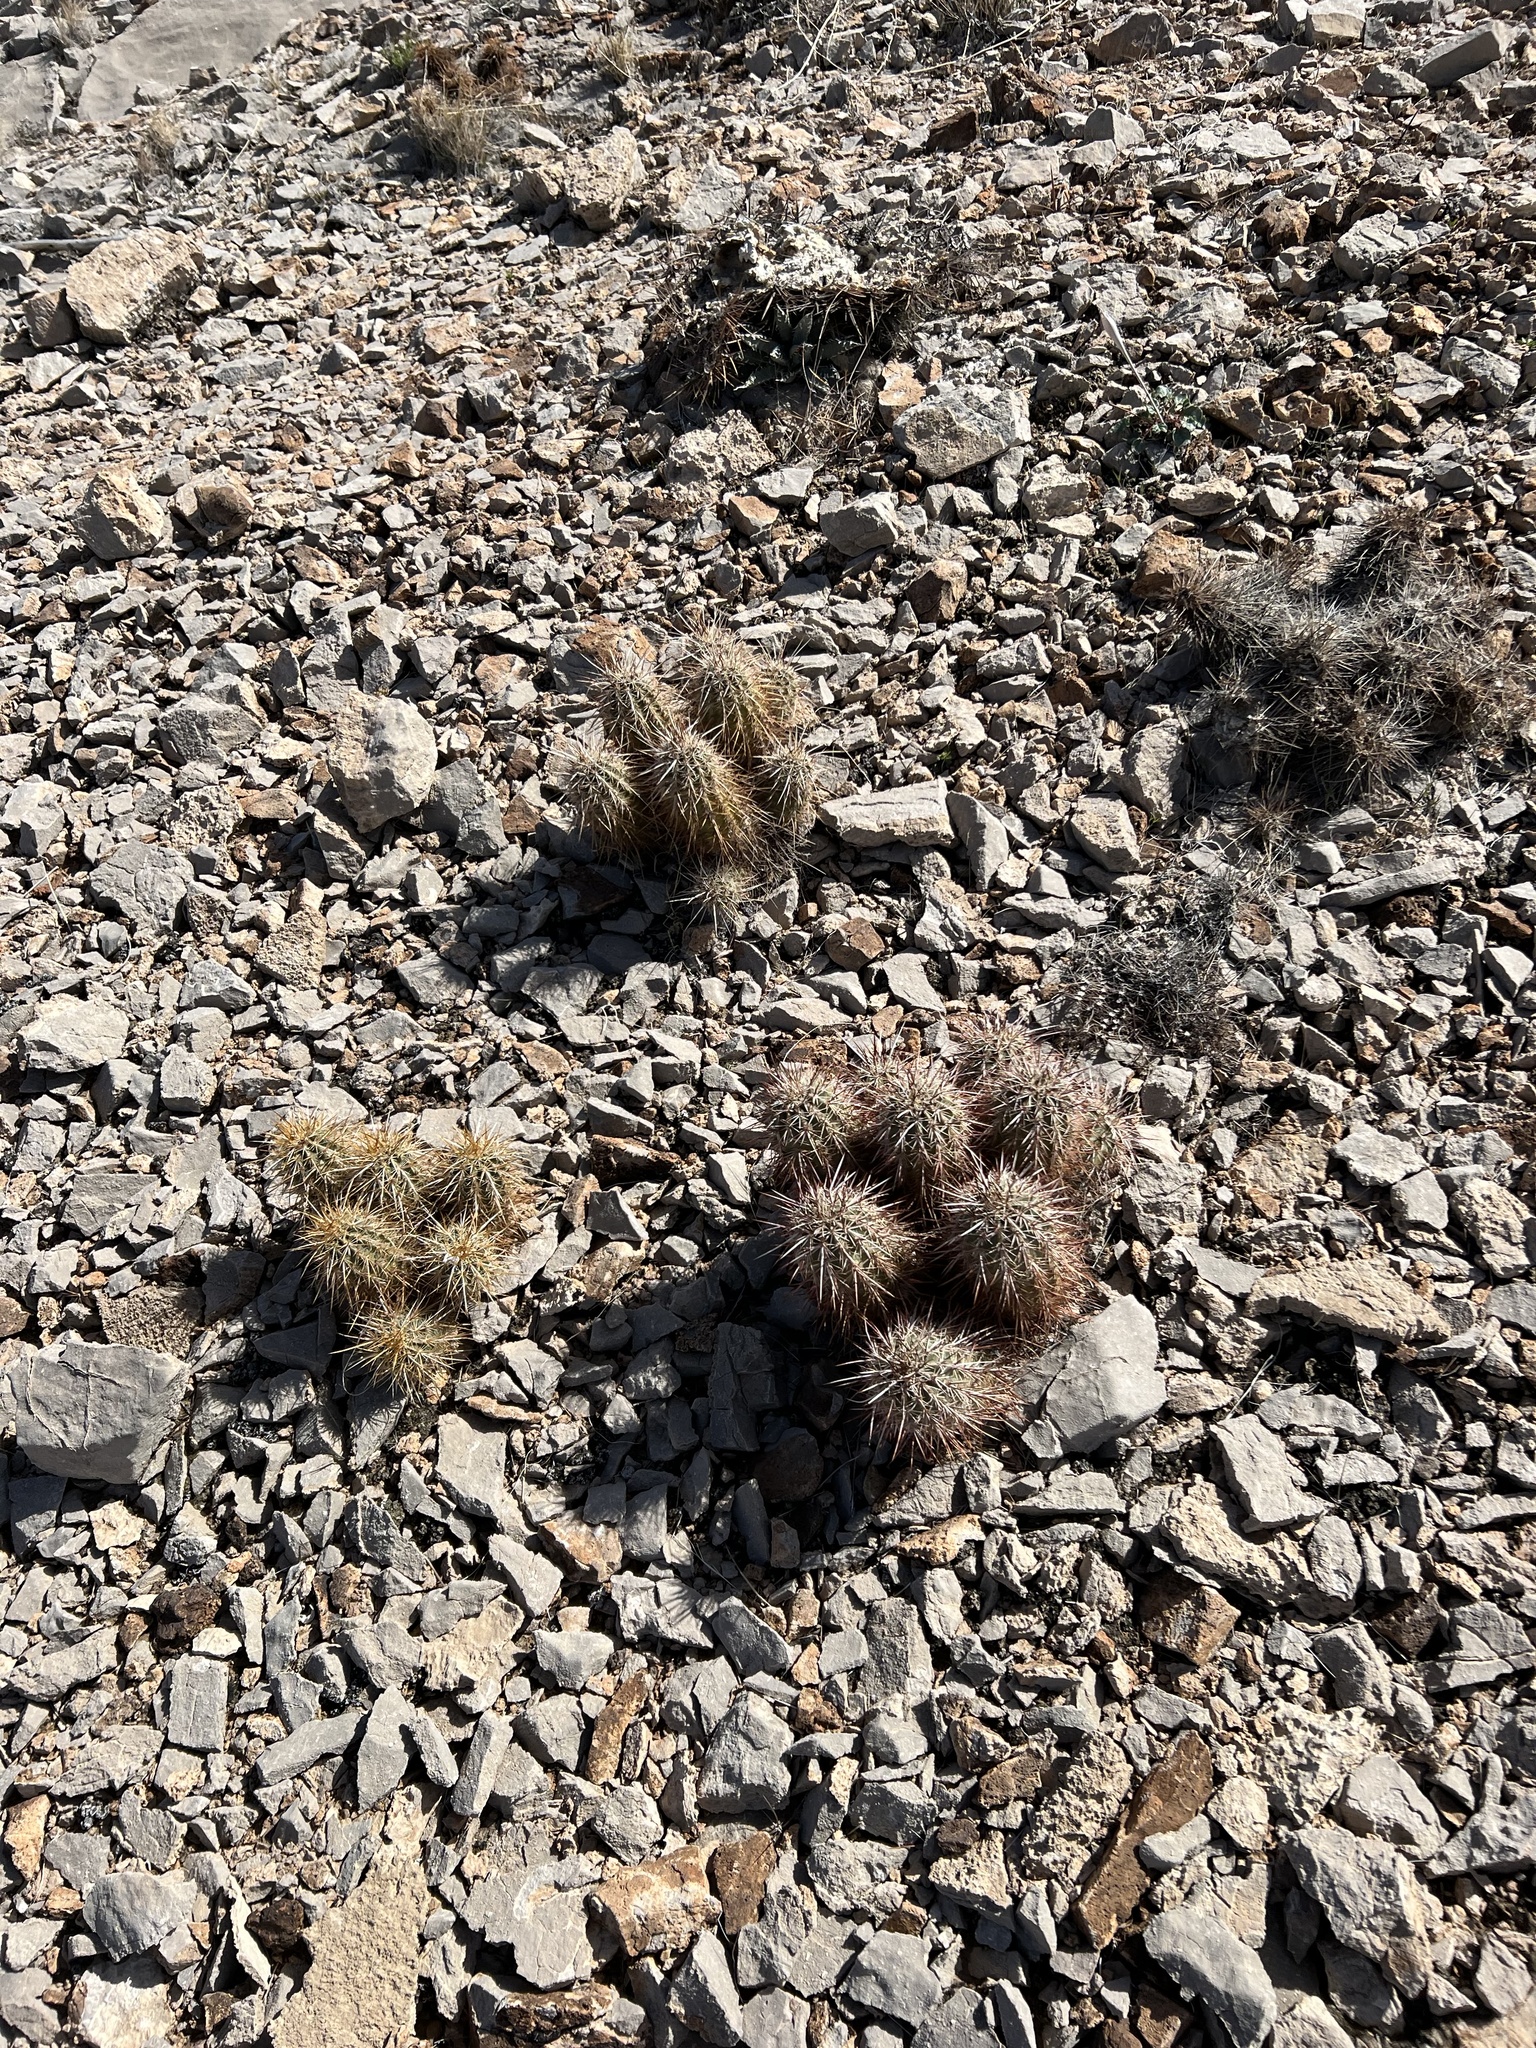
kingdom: Plantae
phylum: Tracheophyta
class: Magnoliopsida
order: Caryophyllales
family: Cactaceae
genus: Echinocereus
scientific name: Echinocereus engelmannii
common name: Engelmann's hedgehog cactus
